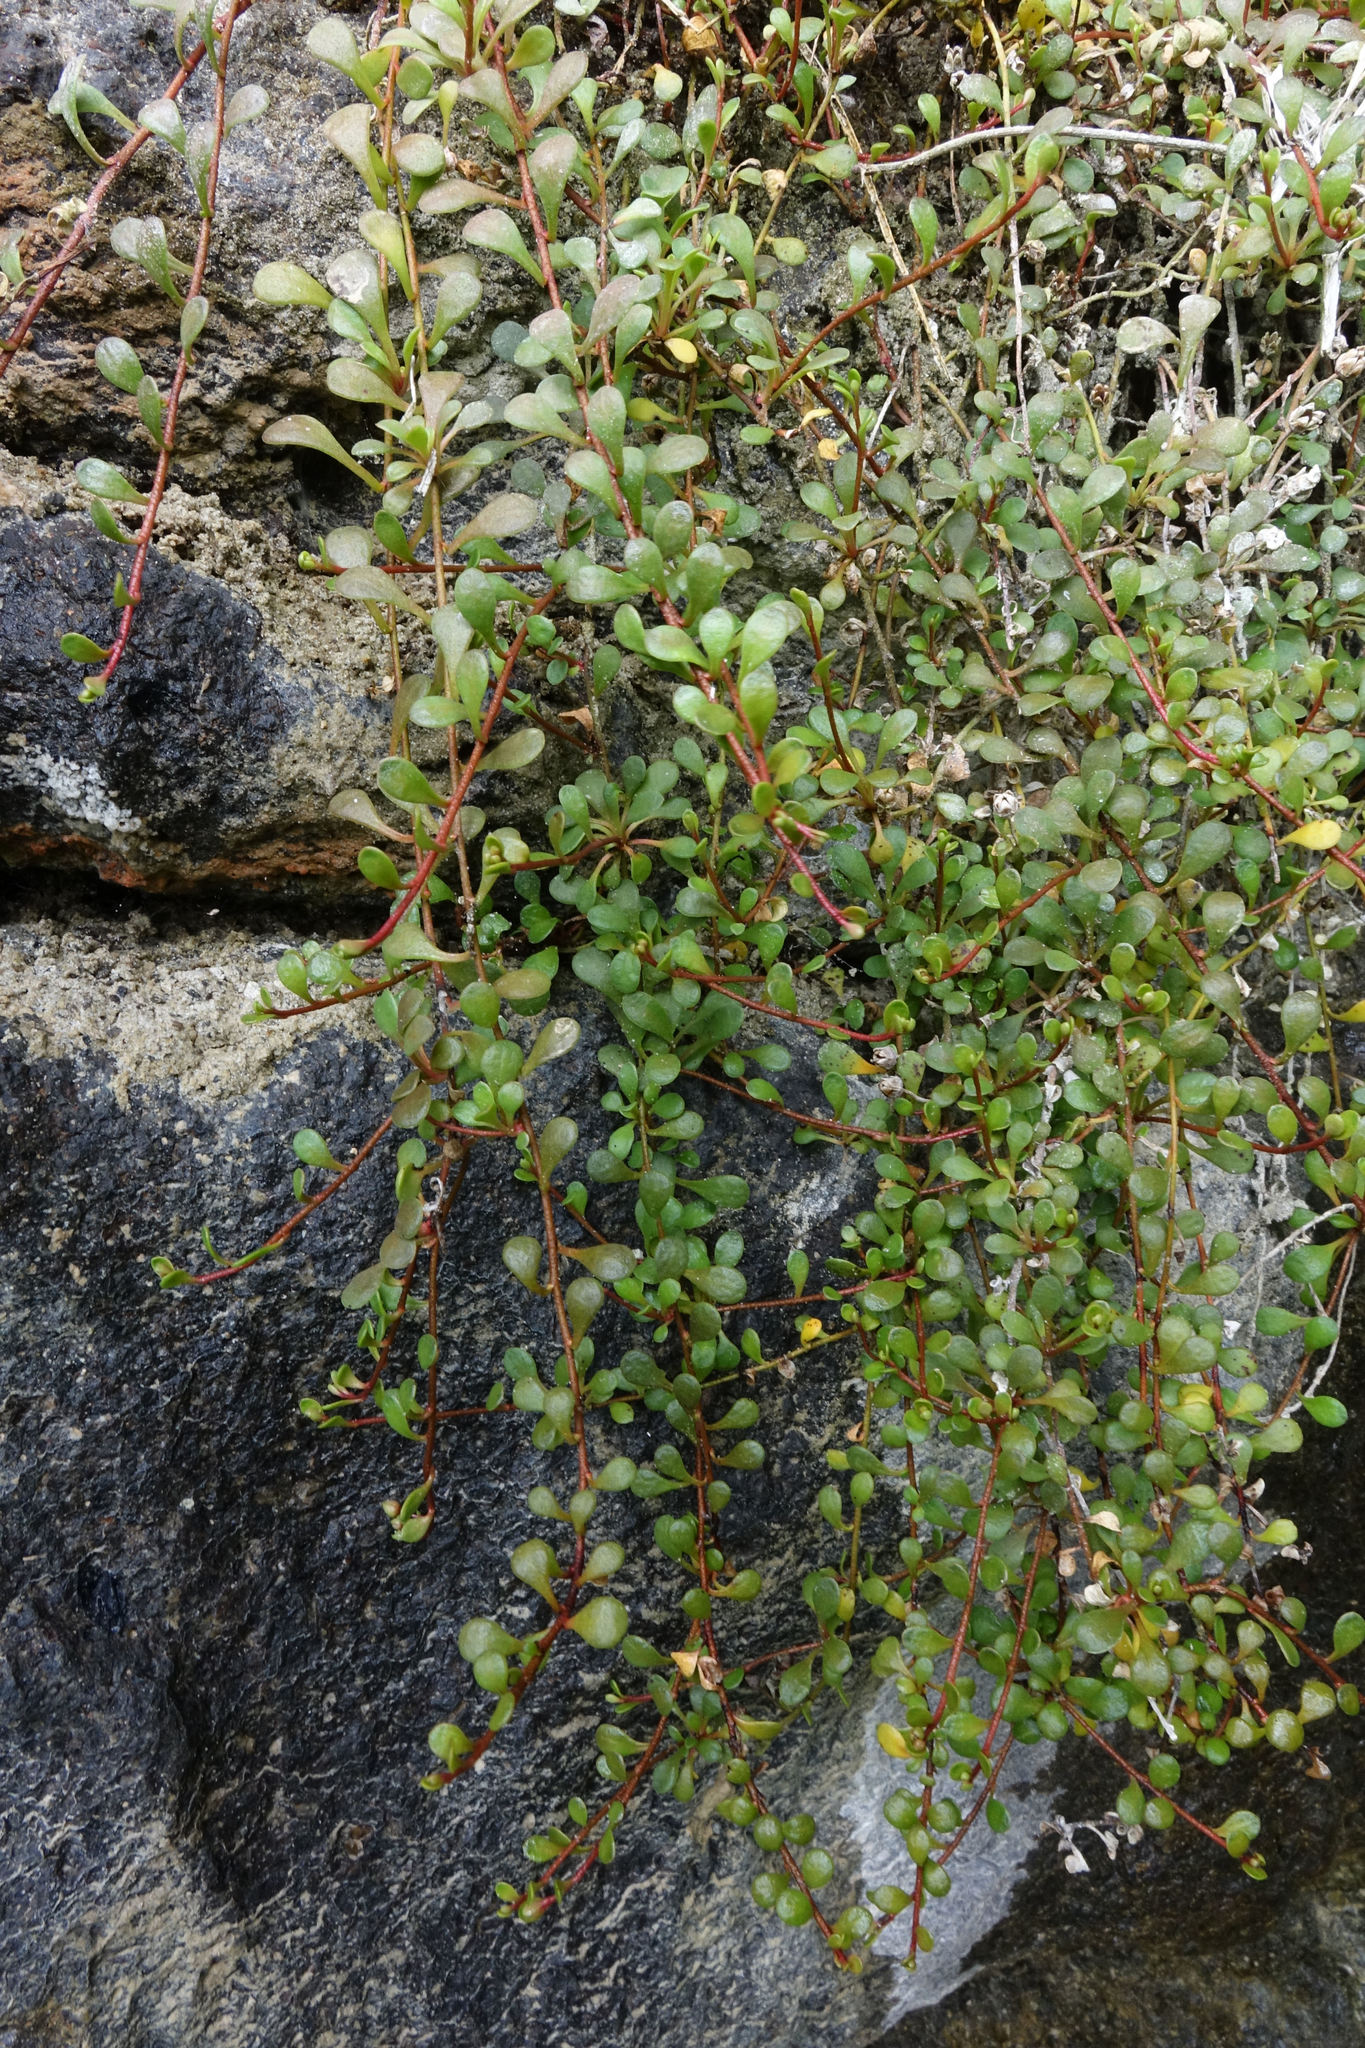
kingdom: Plantae
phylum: Tracheophyta
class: Magnoliopsida
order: Ericales
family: Primulaceae
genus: Samolus
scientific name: Samolus repens
